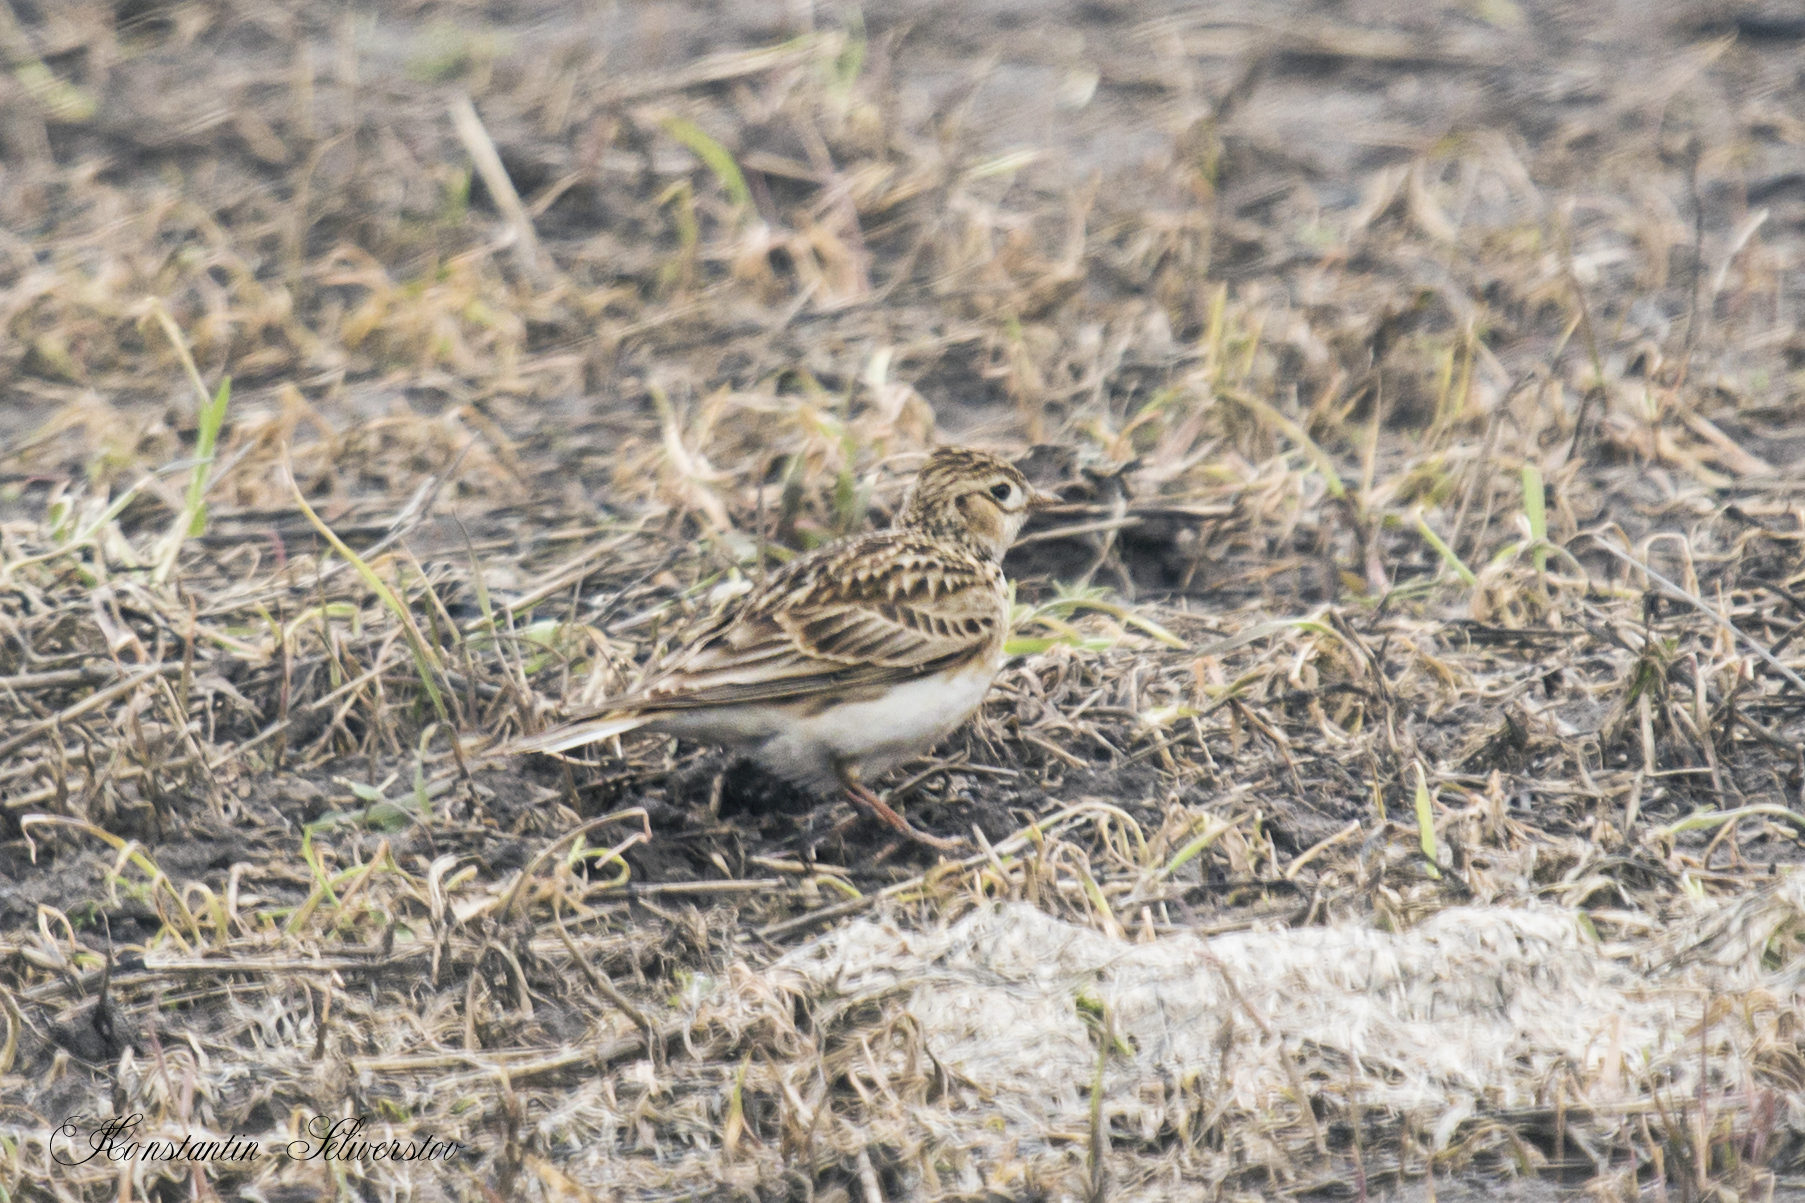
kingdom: Animalia
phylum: Chordata
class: Aves
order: Passeriformes
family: Alaudidae
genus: Alauda
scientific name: Alauda arvensis
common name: Eurasian skylark
